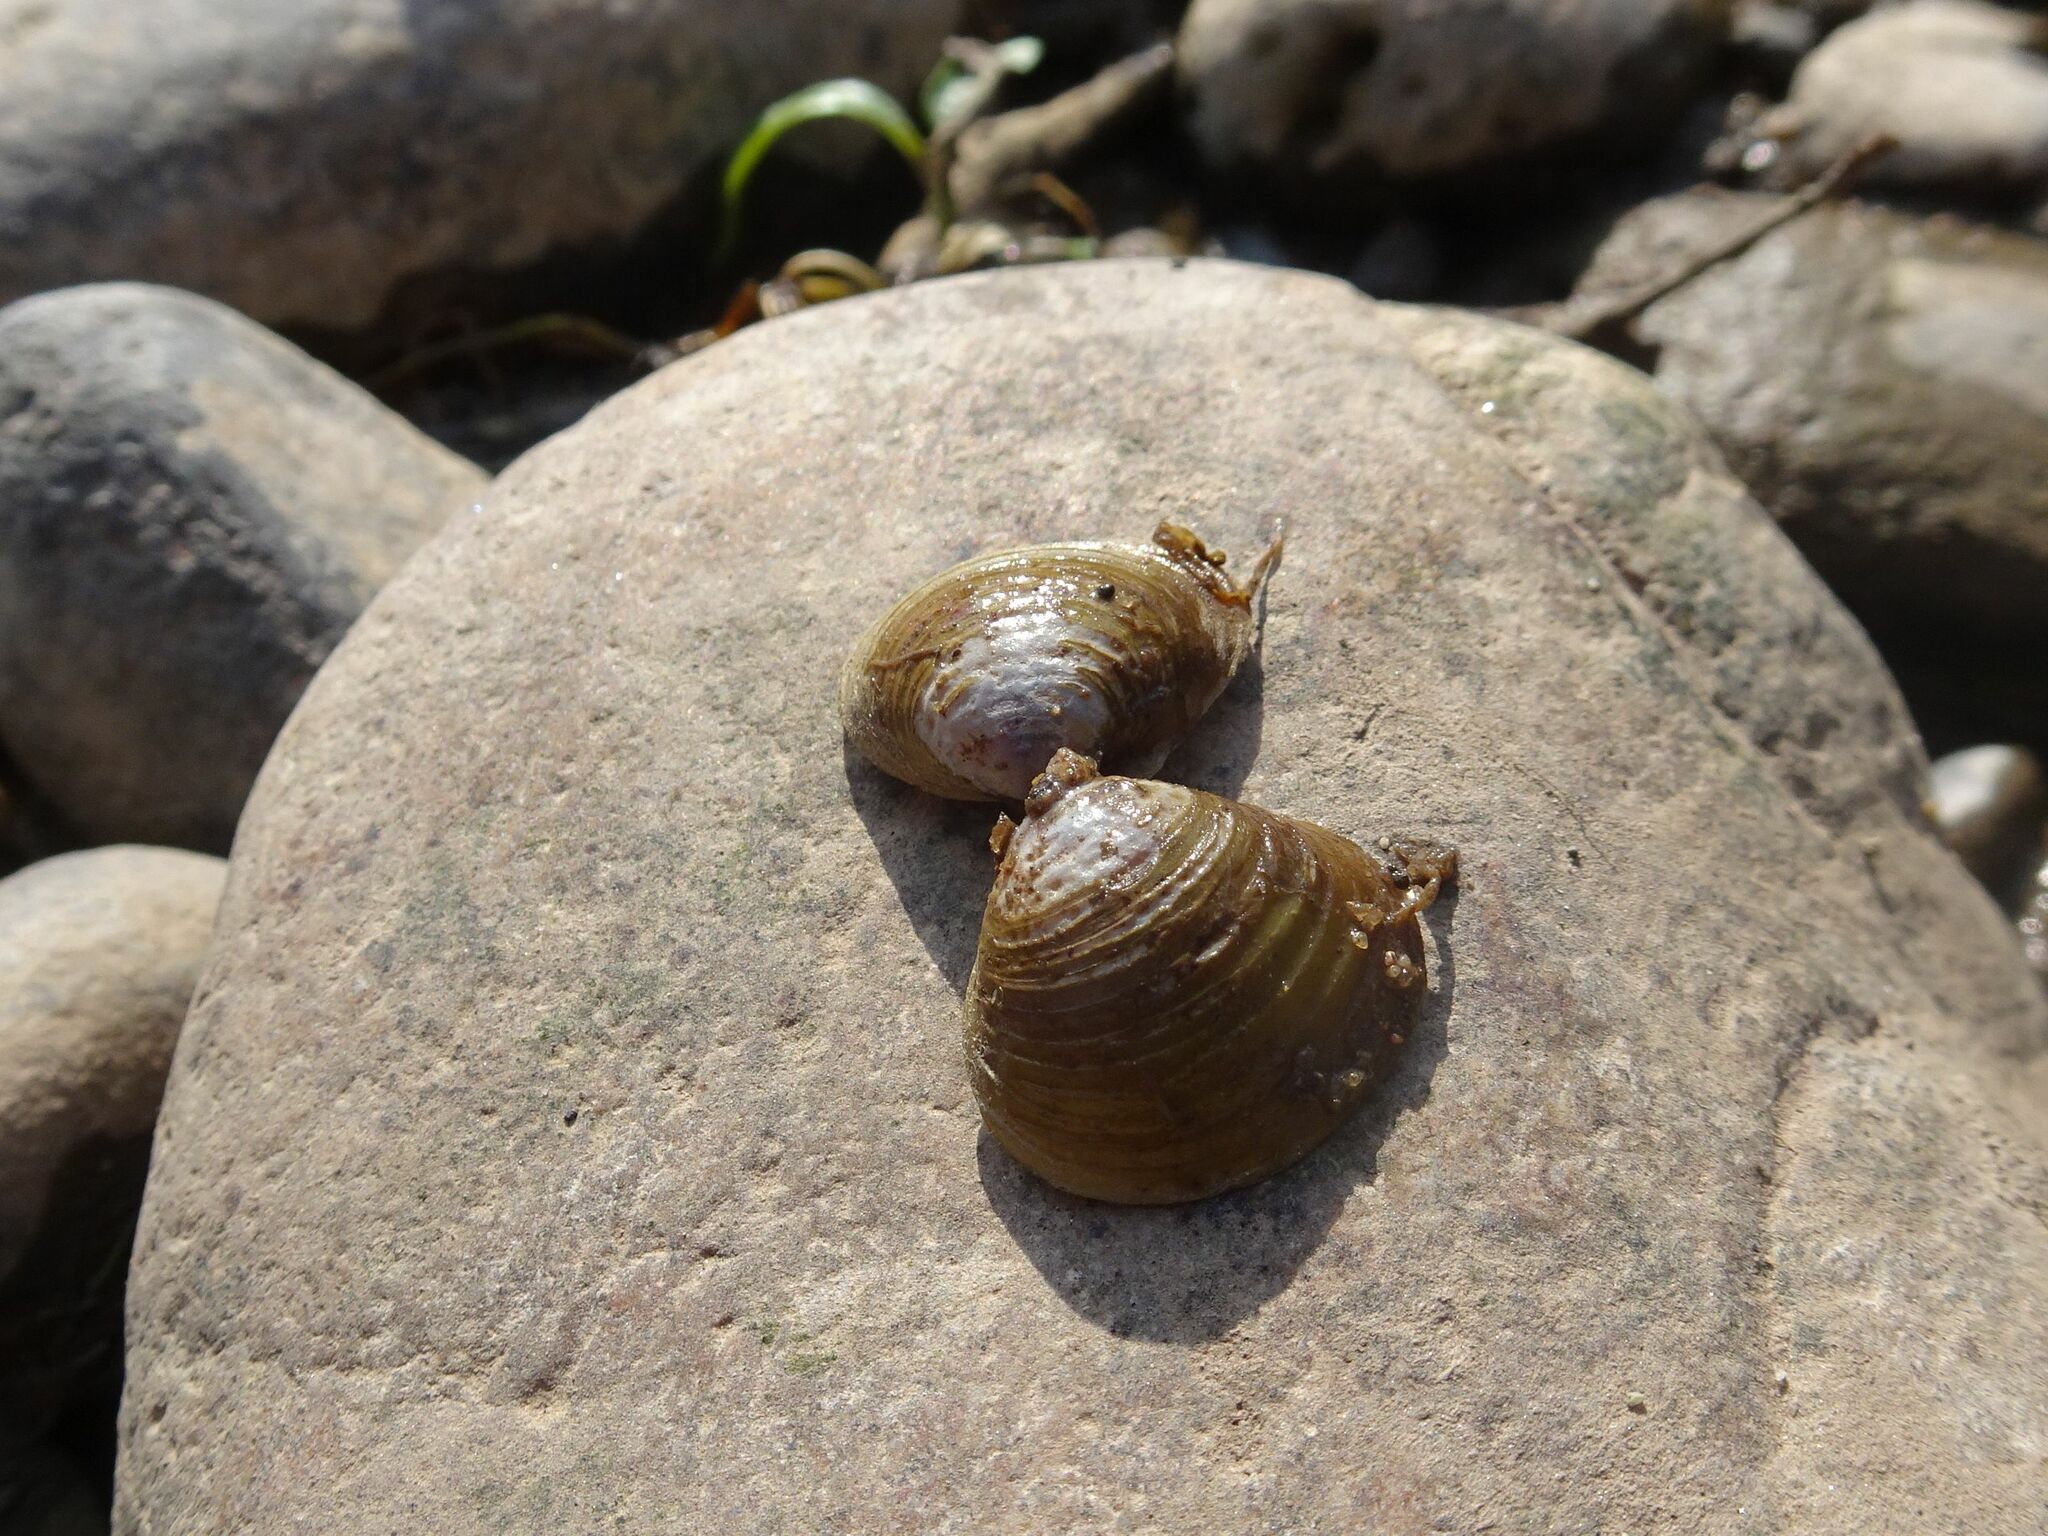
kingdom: Animalia
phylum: Mollusca
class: Bivalvia
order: Venerida
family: Cyrenidae
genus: Corbicula
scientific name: Corbicula fluminea
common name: Asian clam
